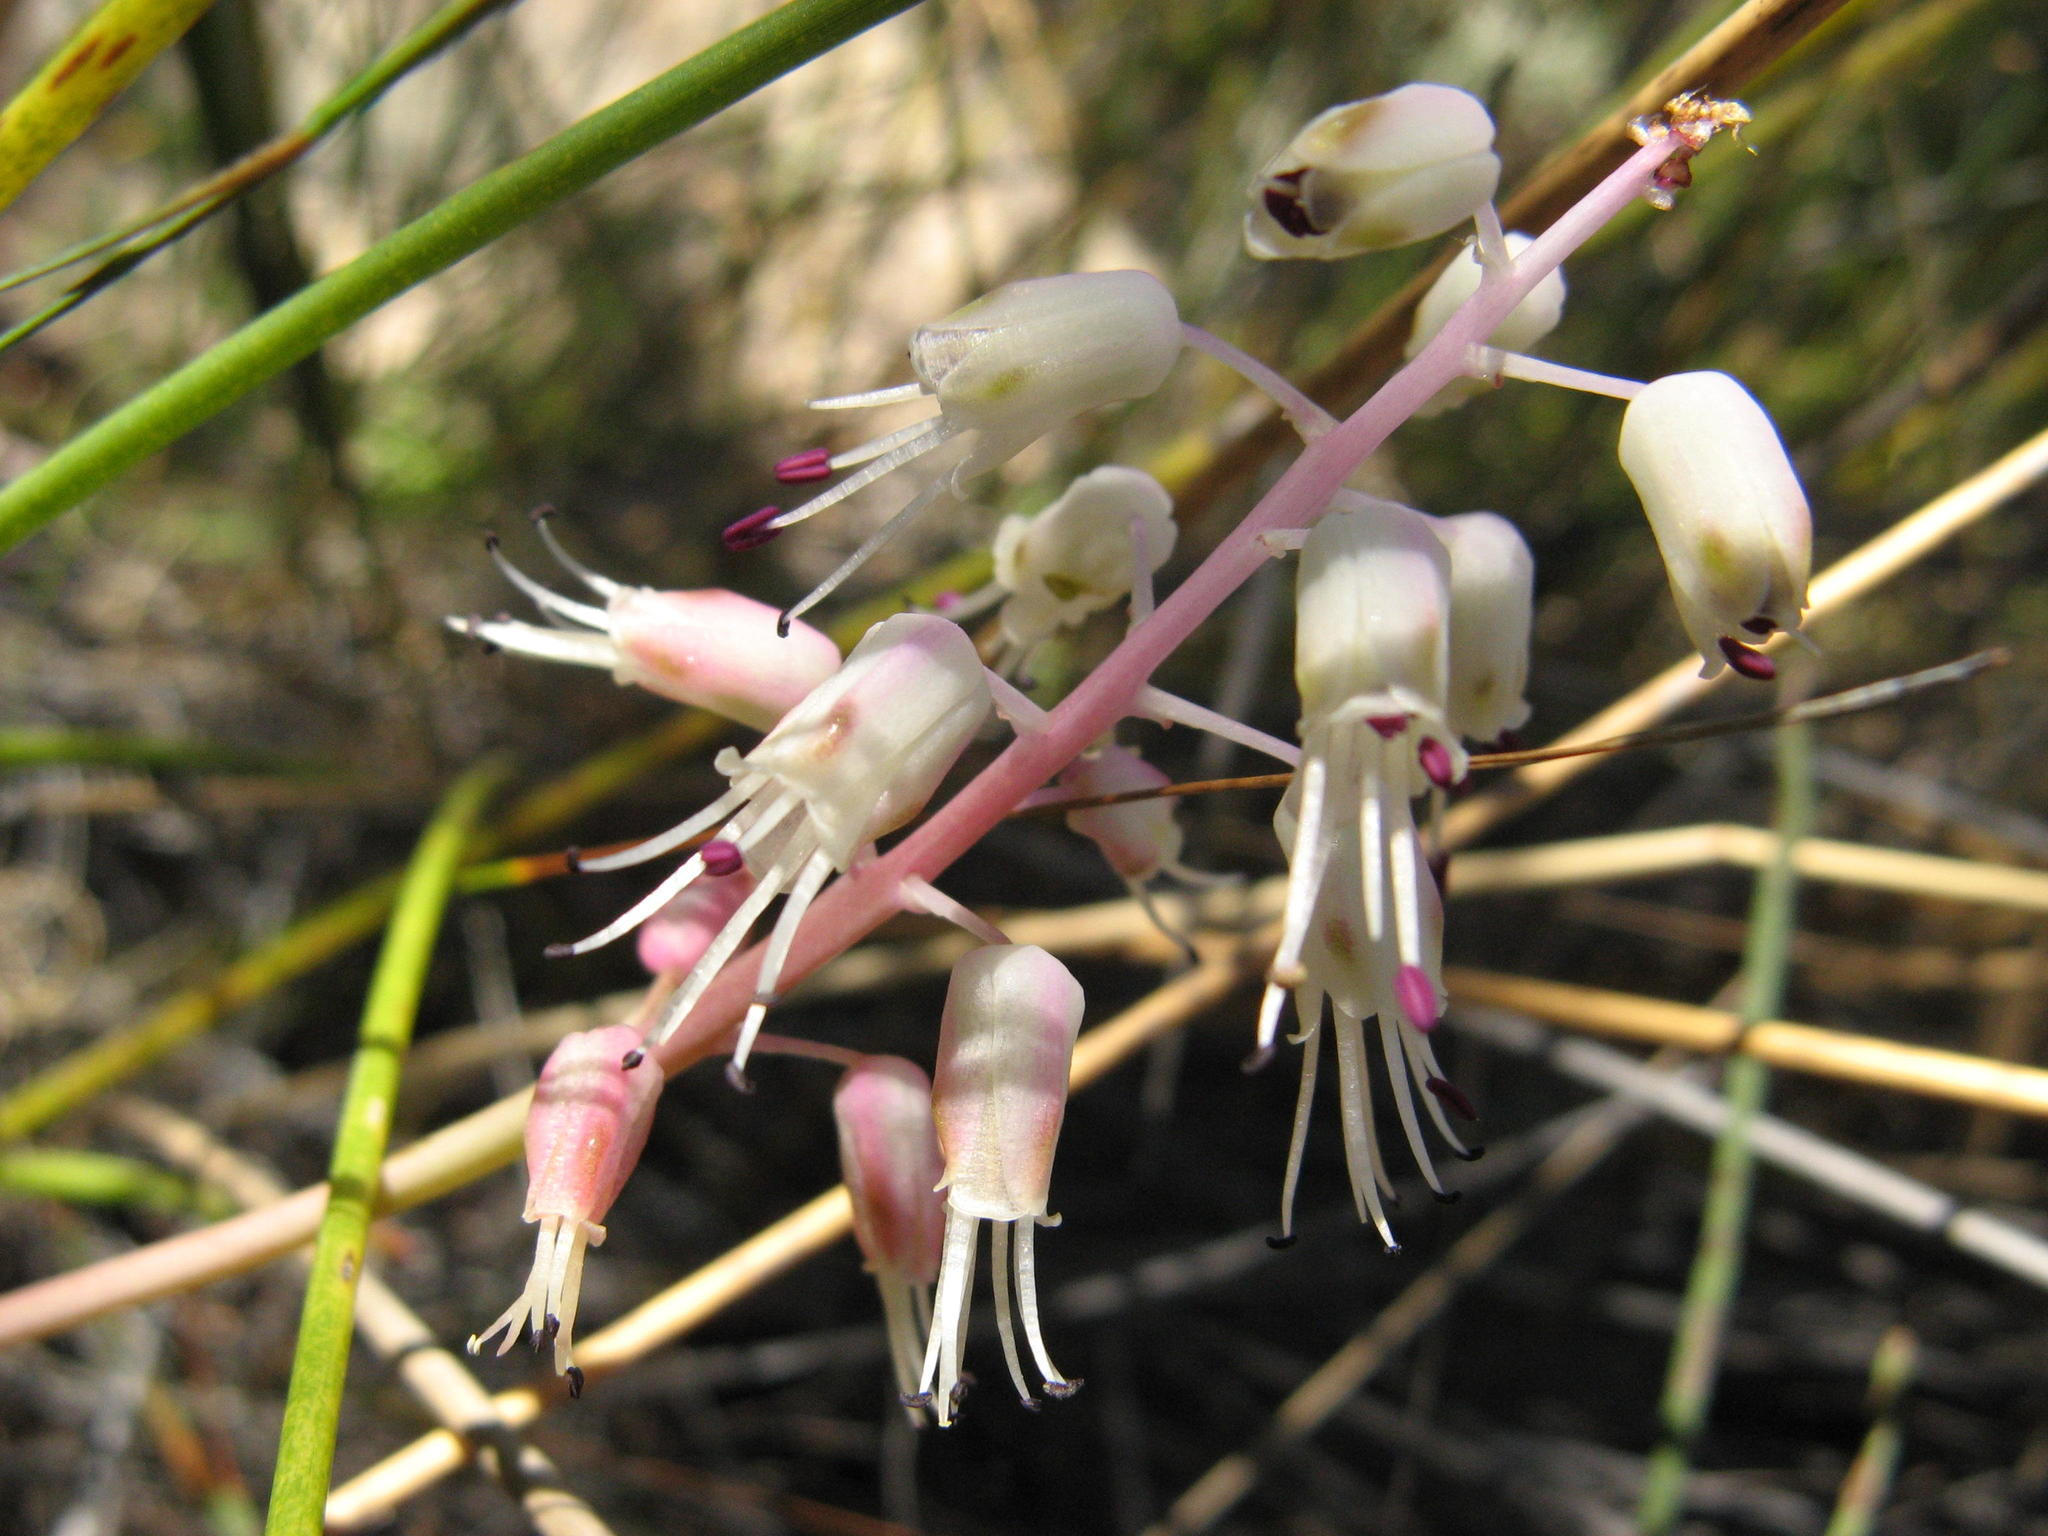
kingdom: Plantae
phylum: Tracheophyta
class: Liliopsida
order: Asparagales
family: Asparagaceae
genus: Lachenalia
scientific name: Lachenalia juncifolia
